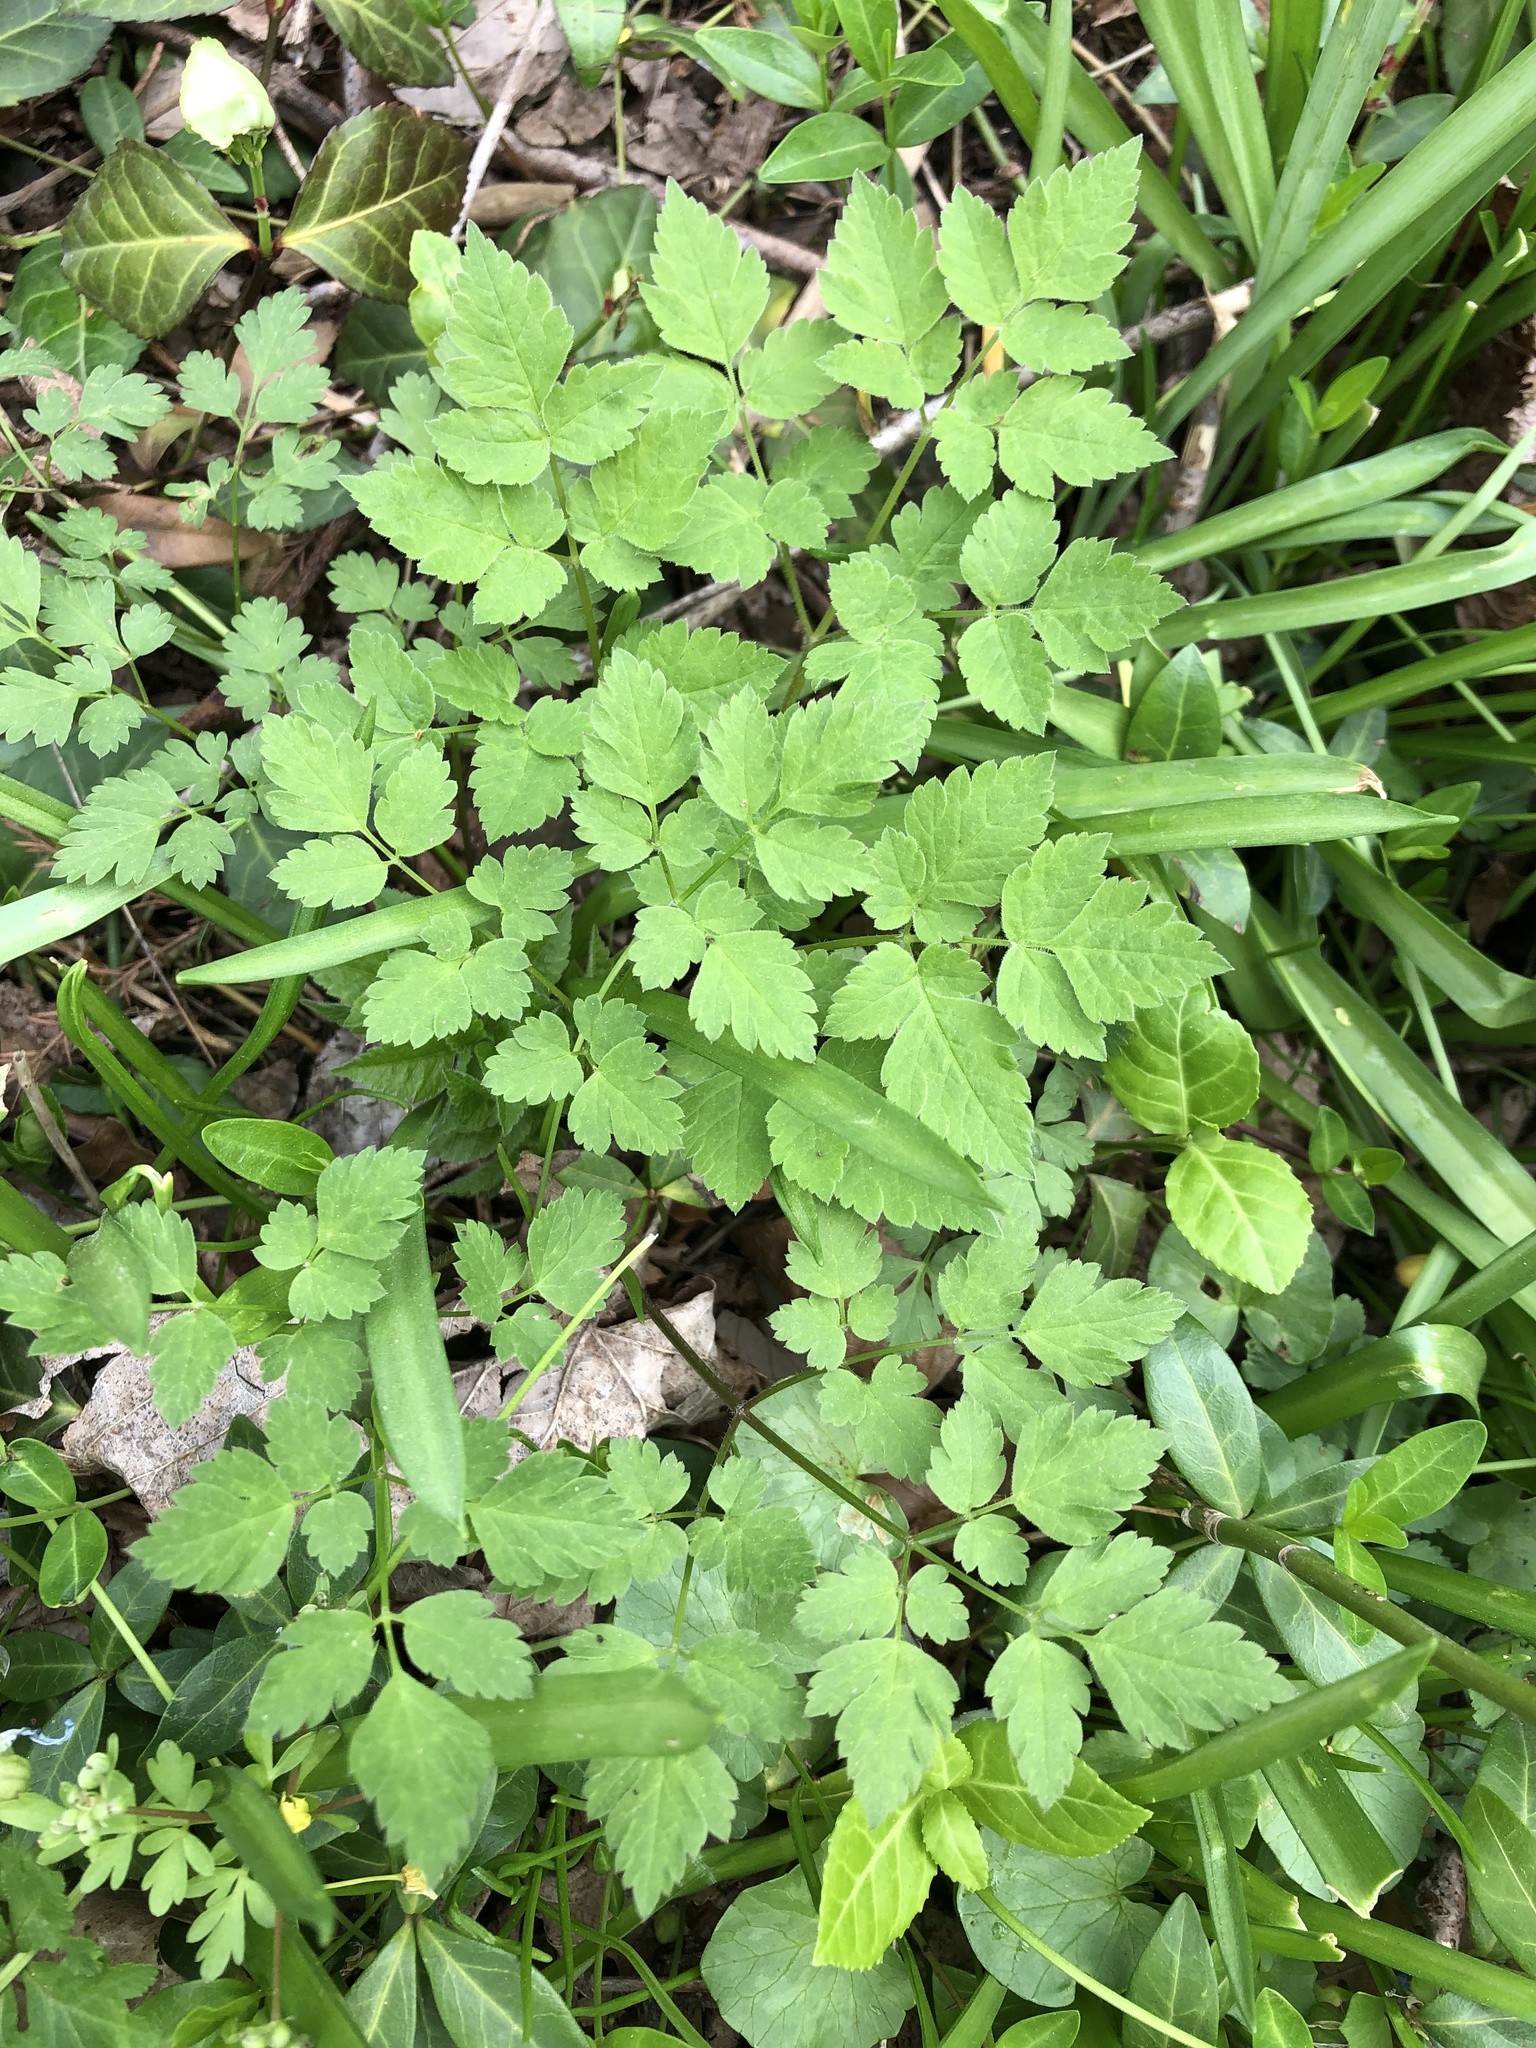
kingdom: Plantae
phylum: Tracheophyta
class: Magnoliopsida
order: Apiales
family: Apiaceae
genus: Osmorhiza
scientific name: Osmorhiza longistylis
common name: Smooth sweet cicely
